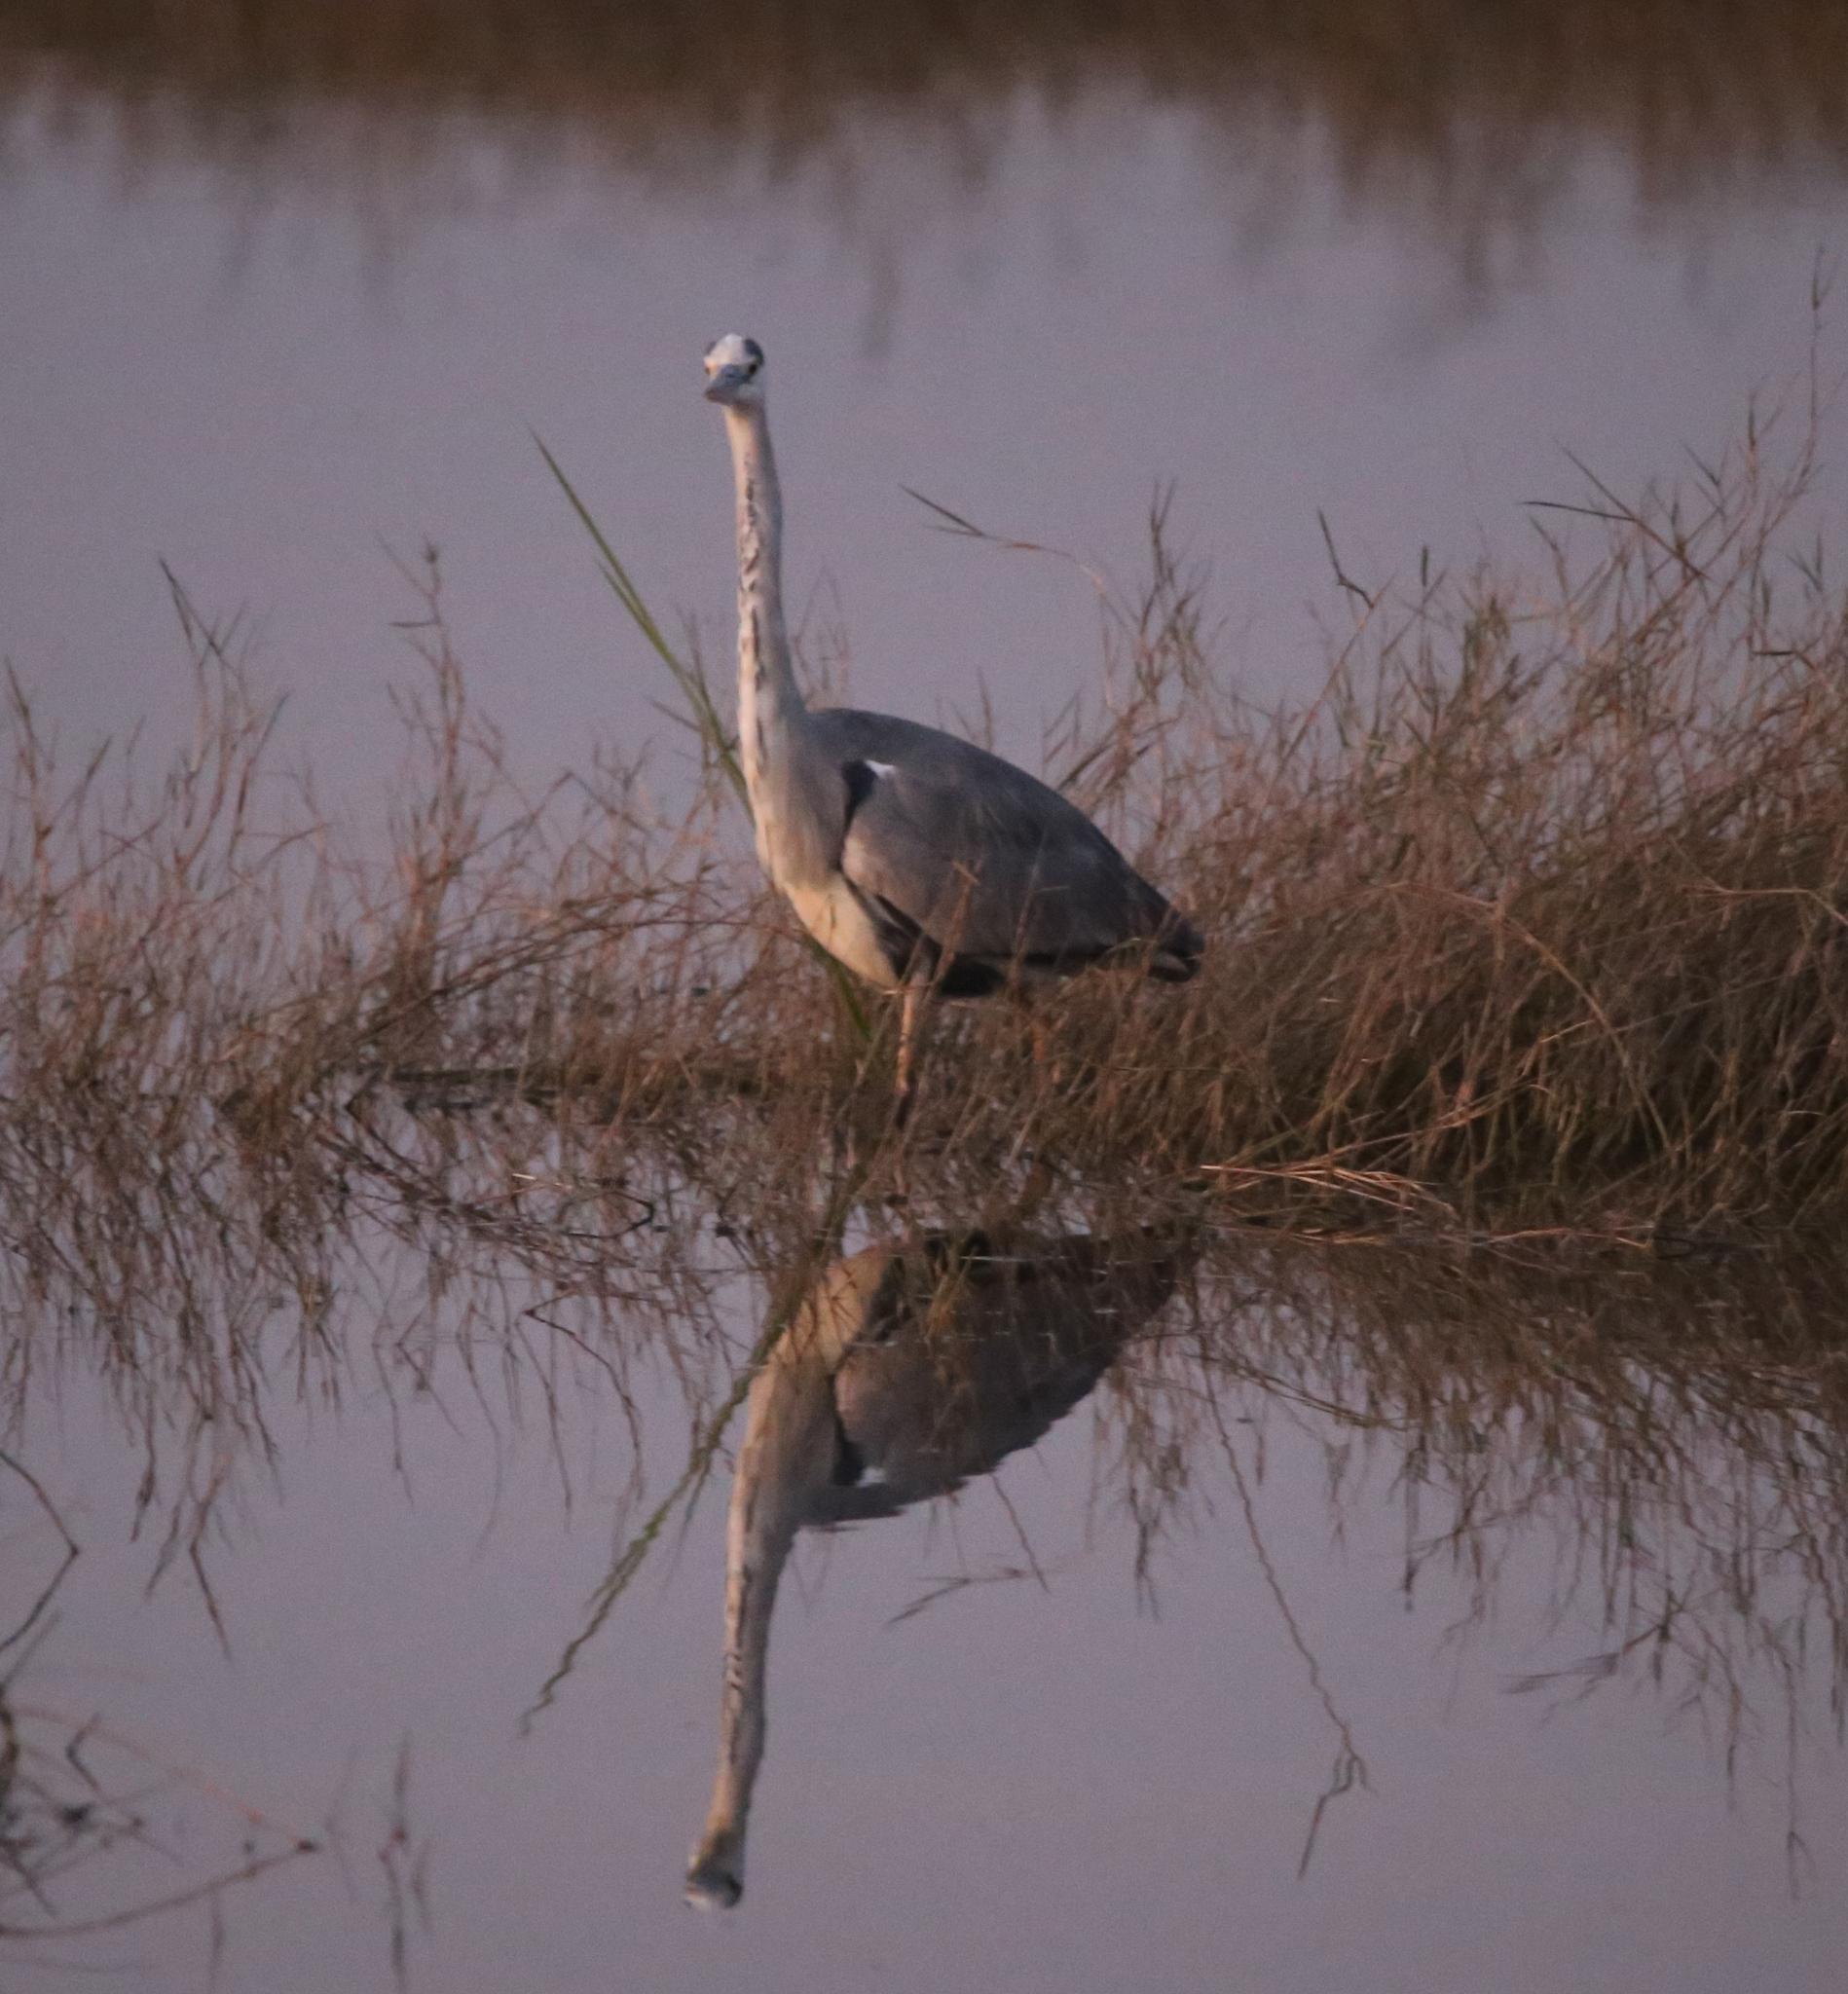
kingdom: Animalia
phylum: Chordata
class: Aves
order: Pelecaniformes
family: Ardeidae
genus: Ardea
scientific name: Ardea cinerea
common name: Grey heron
